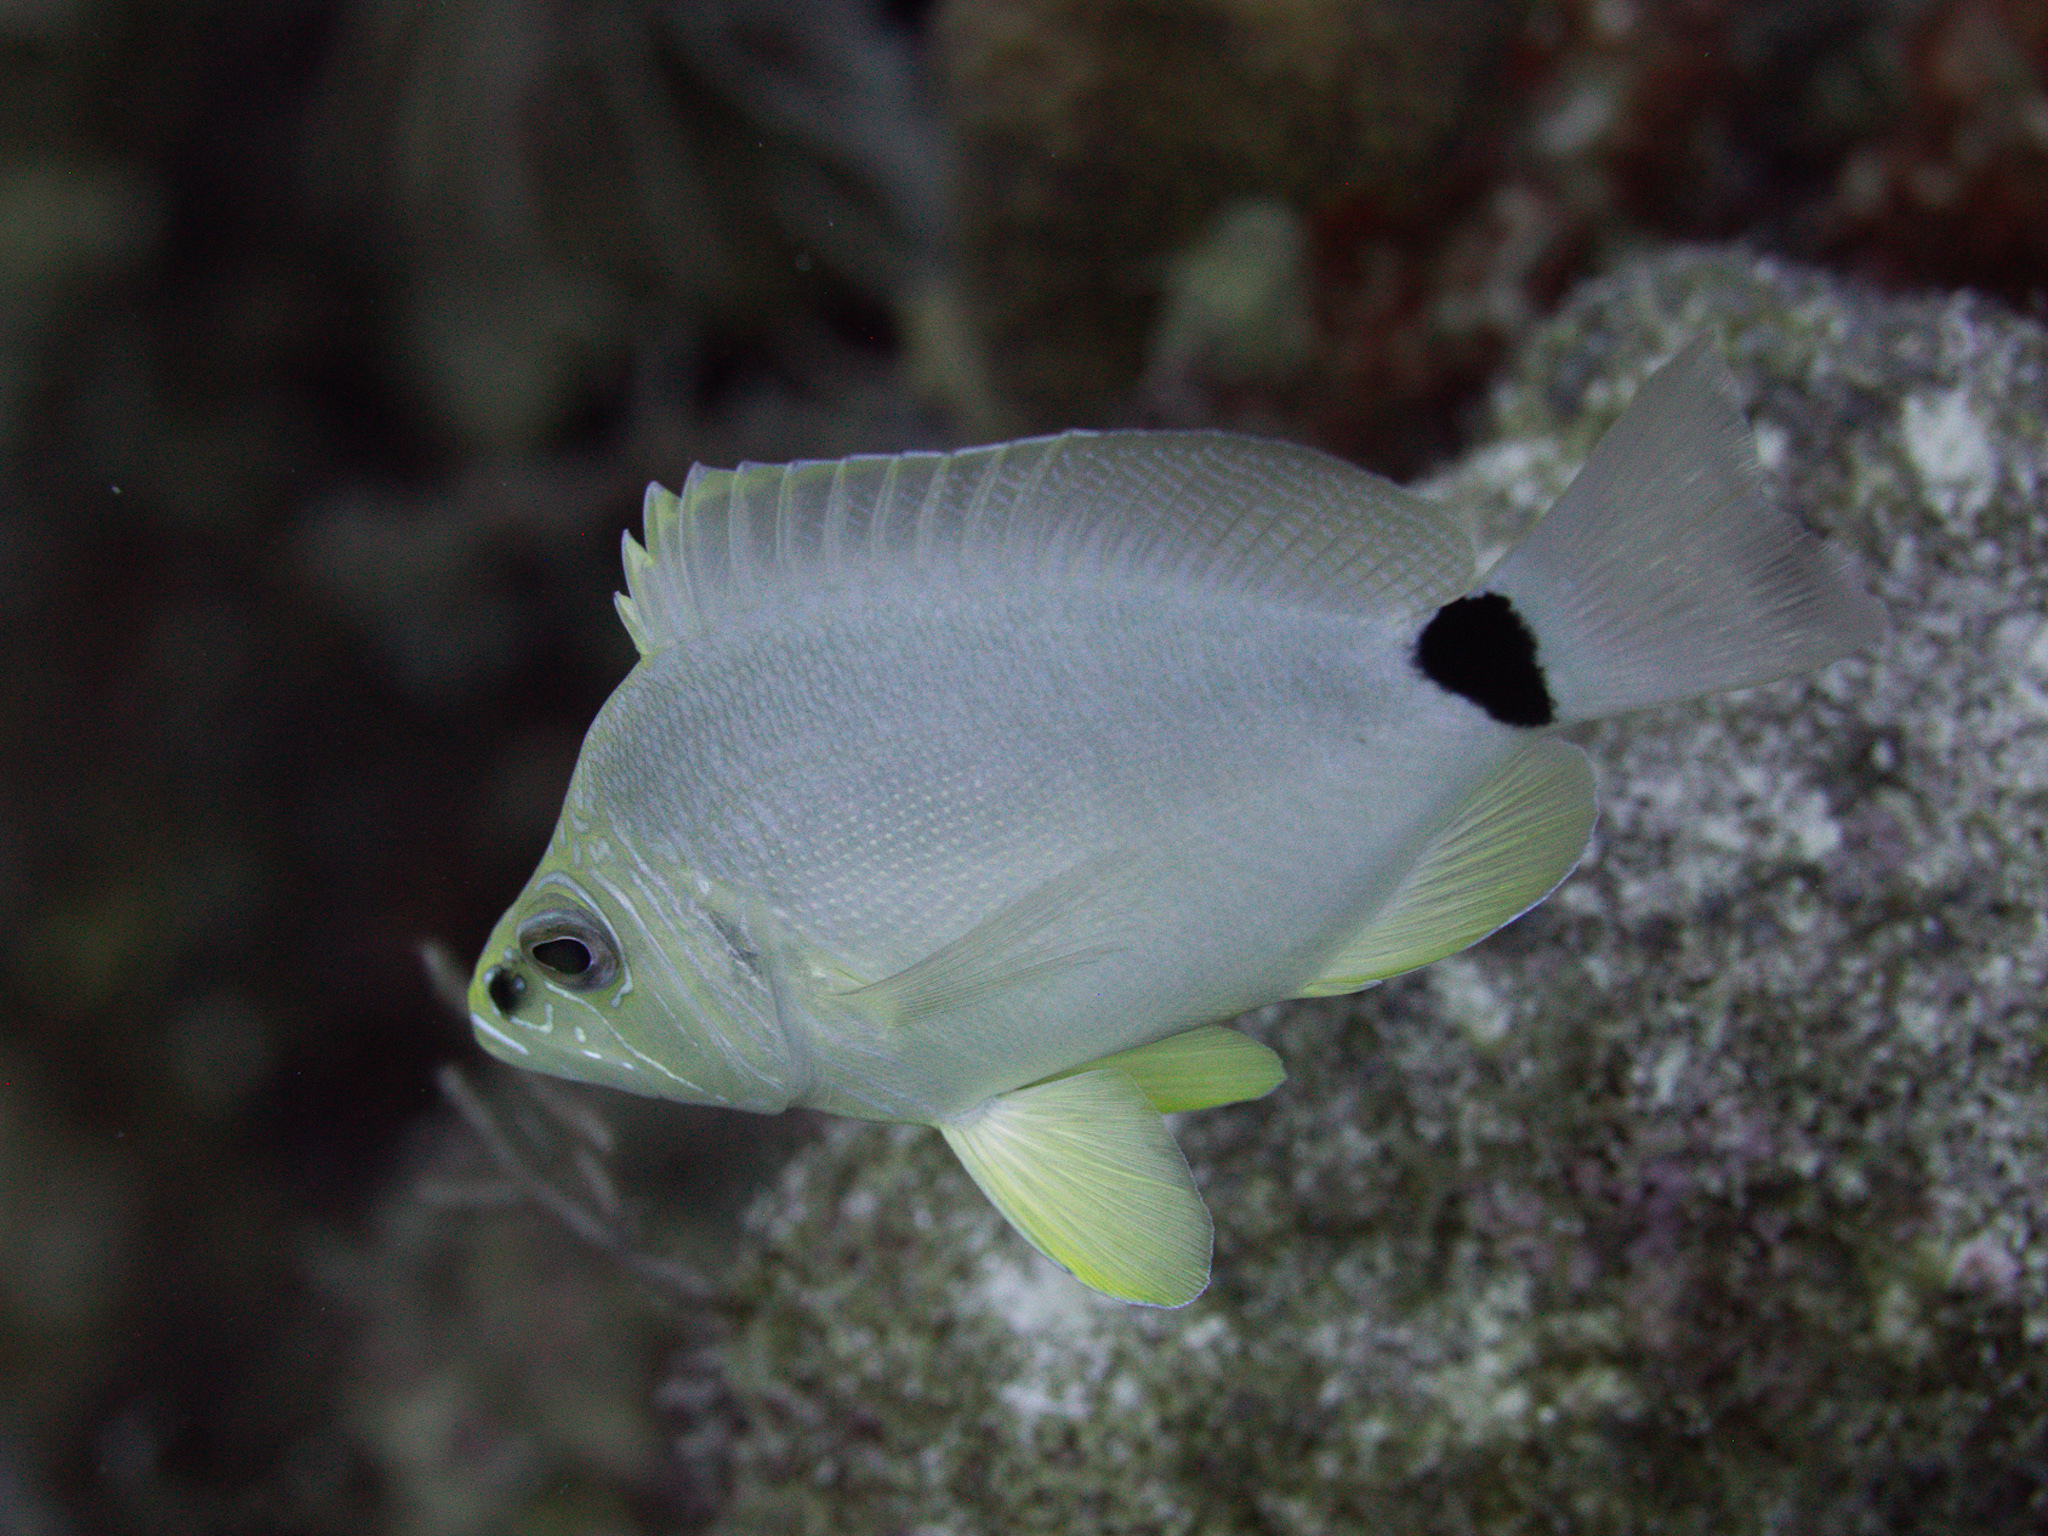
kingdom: Animalia
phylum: Chordata
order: Perciformes
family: Serranidae
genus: Hypoplectrus
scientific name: Hypoplectrus unicolor
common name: Butter hamlet
